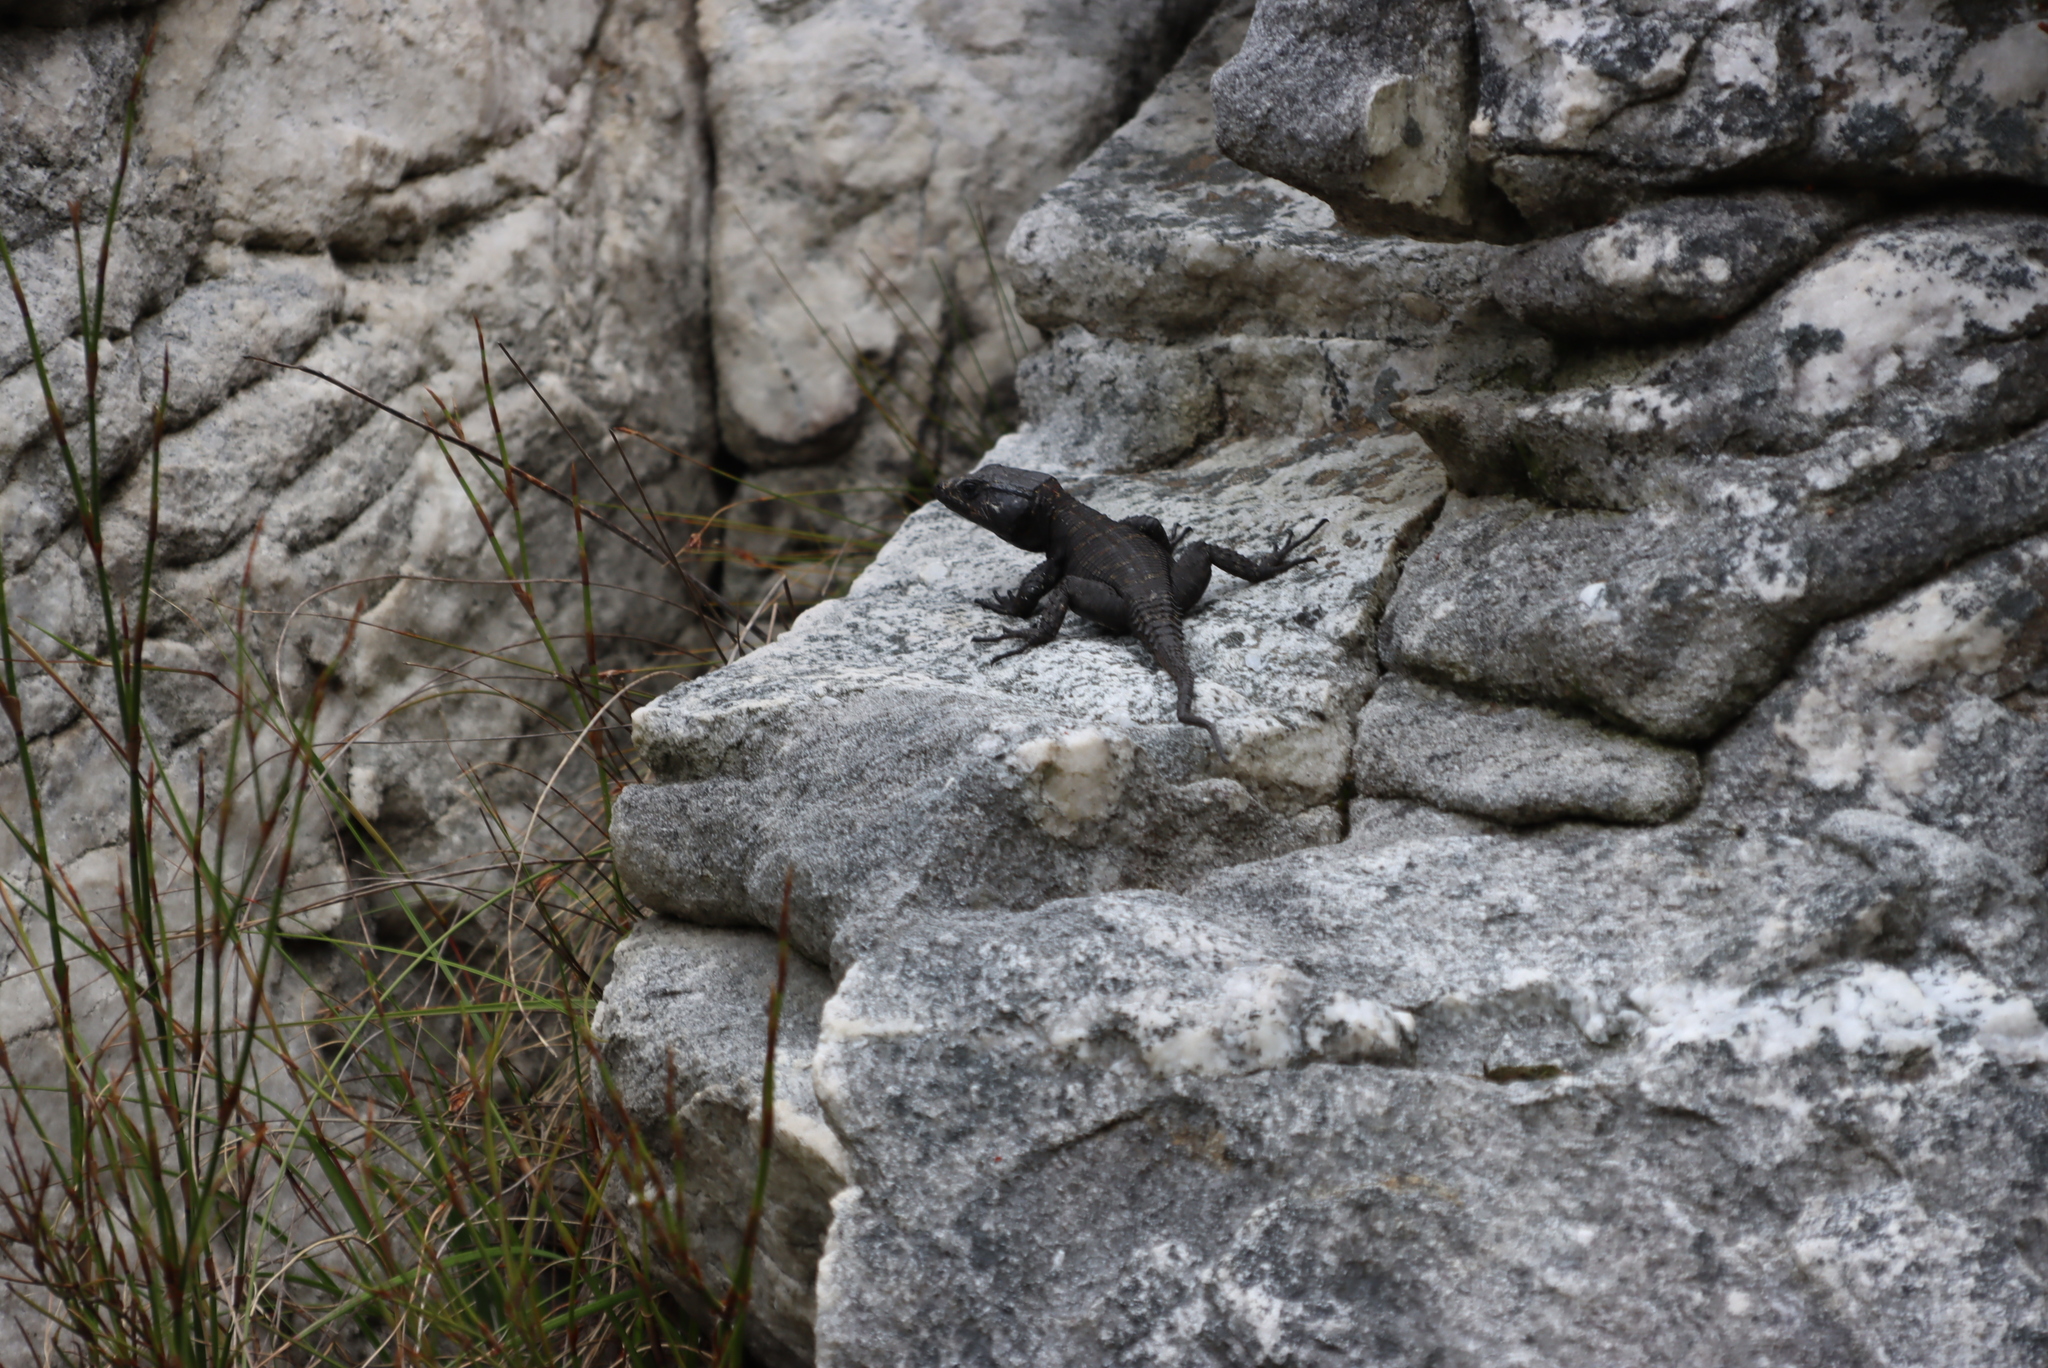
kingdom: Animalia
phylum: Chordata
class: Squamata
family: Cordylidae
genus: Hemicordylus
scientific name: Hemicordylus capensis
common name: Graceful crag lizard
